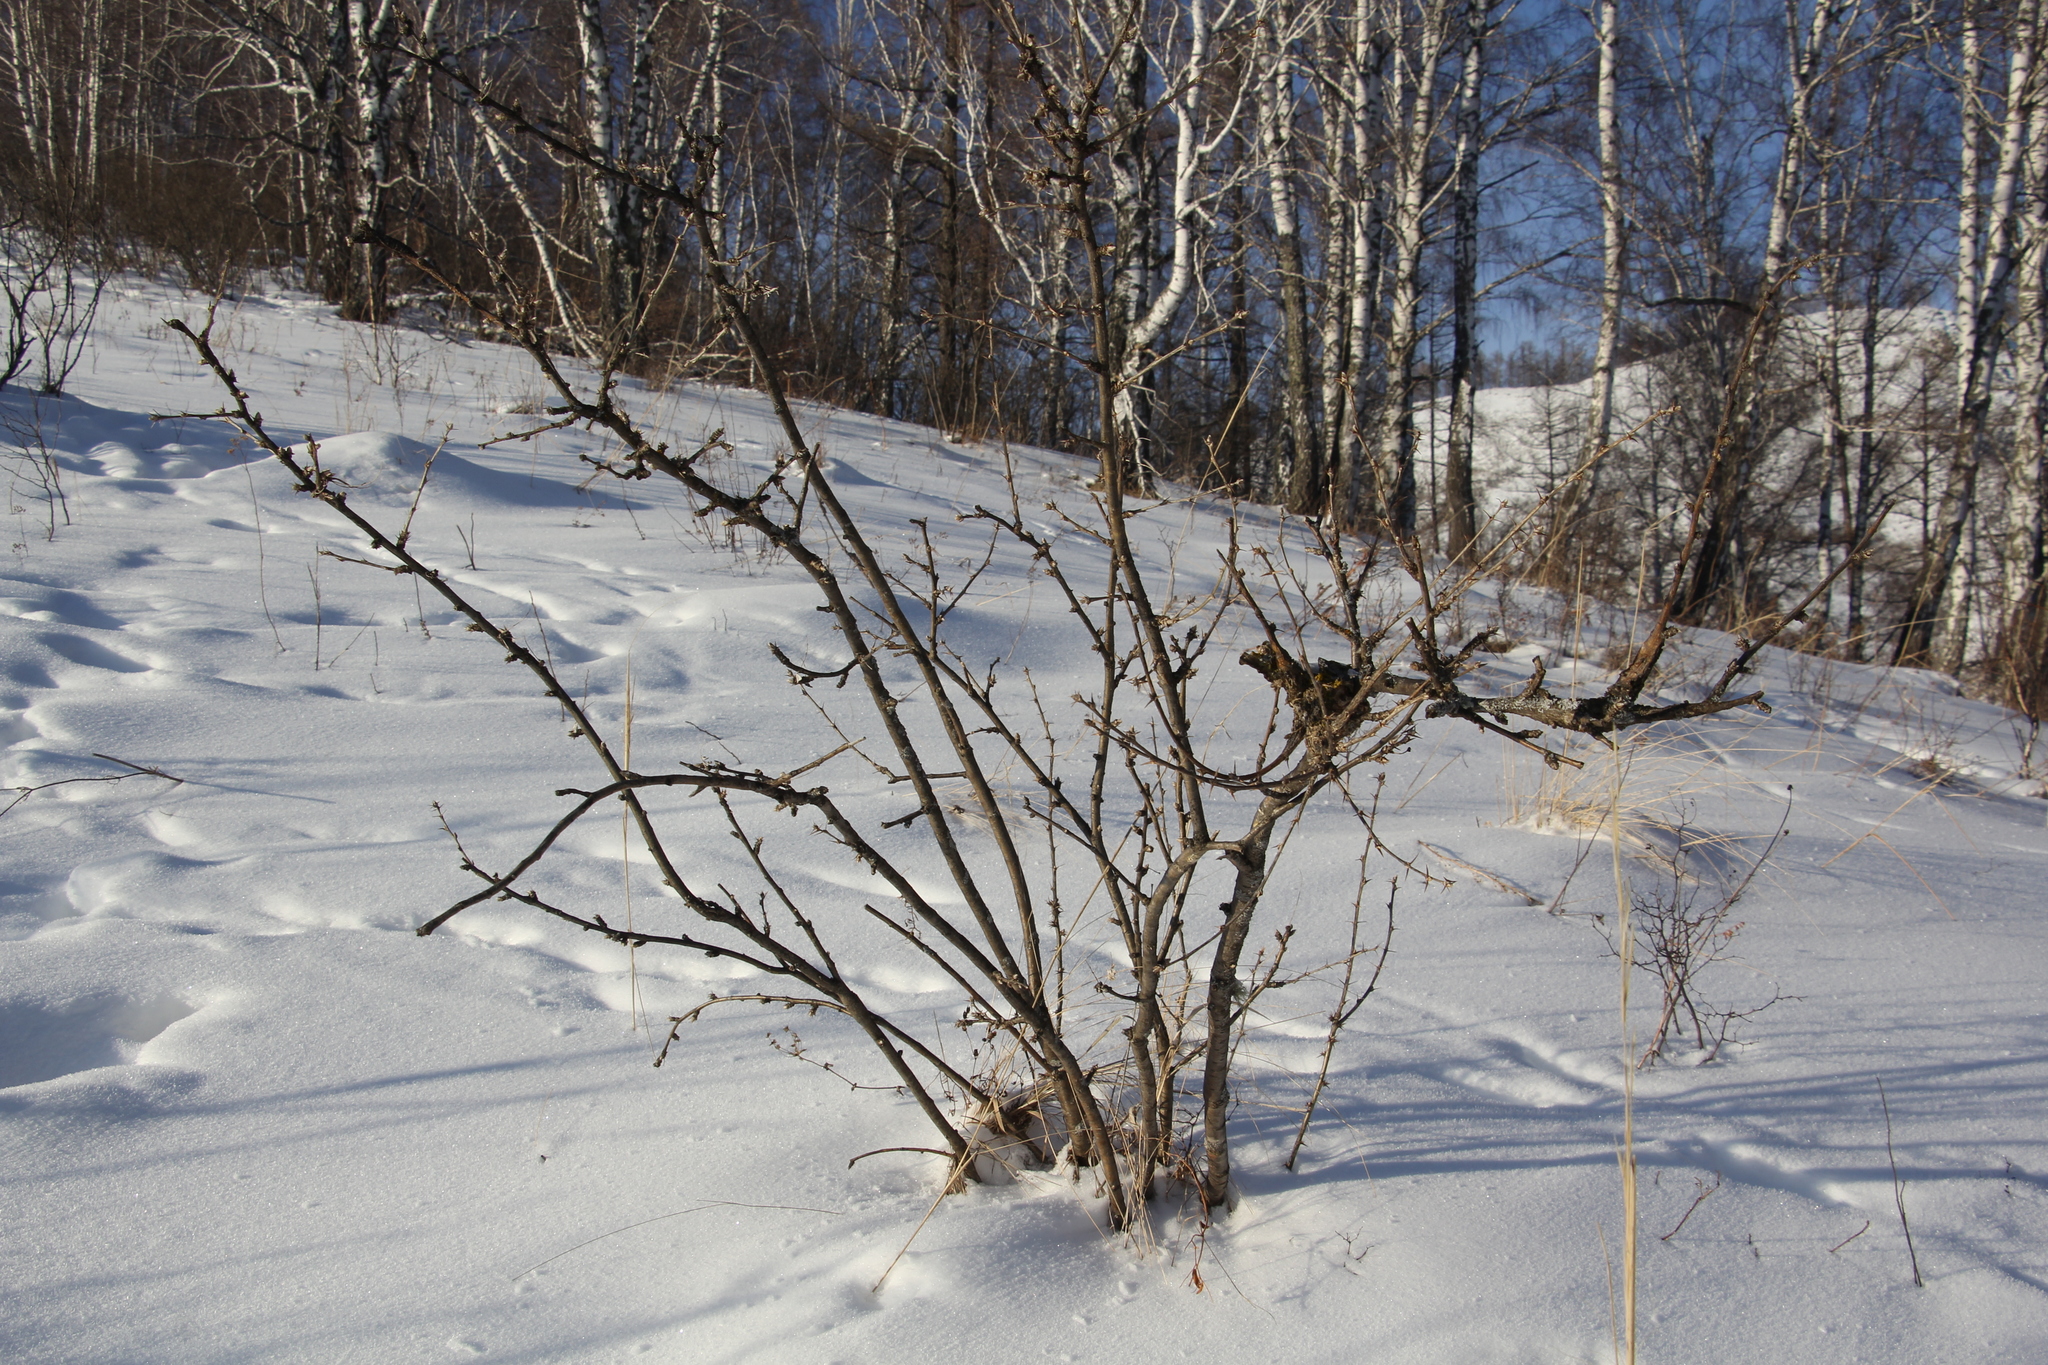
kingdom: Plantae
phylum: Tracheophyta
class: Magnoliopsida
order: Fabales
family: Fabaceae
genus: Caragana
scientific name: Caragana arborescens
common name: Siberian peashrub
